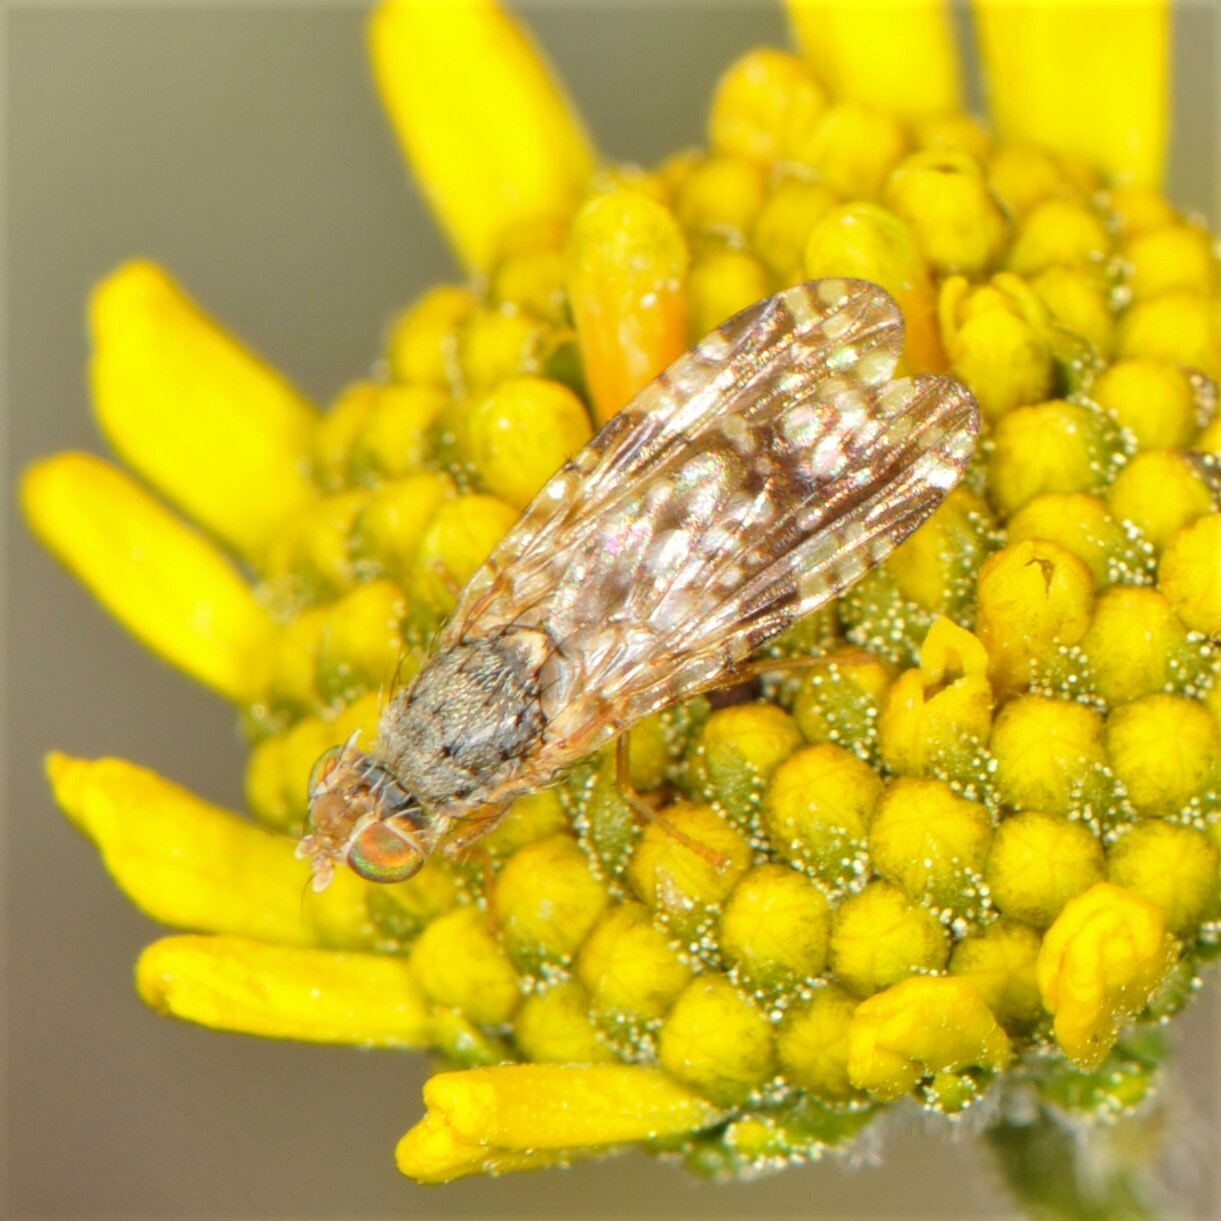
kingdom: Animalia
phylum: Arthropoda
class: Insecta
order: Diptera
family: Tephritidae
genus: Neotephritis
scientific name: Neotephritis finalis
